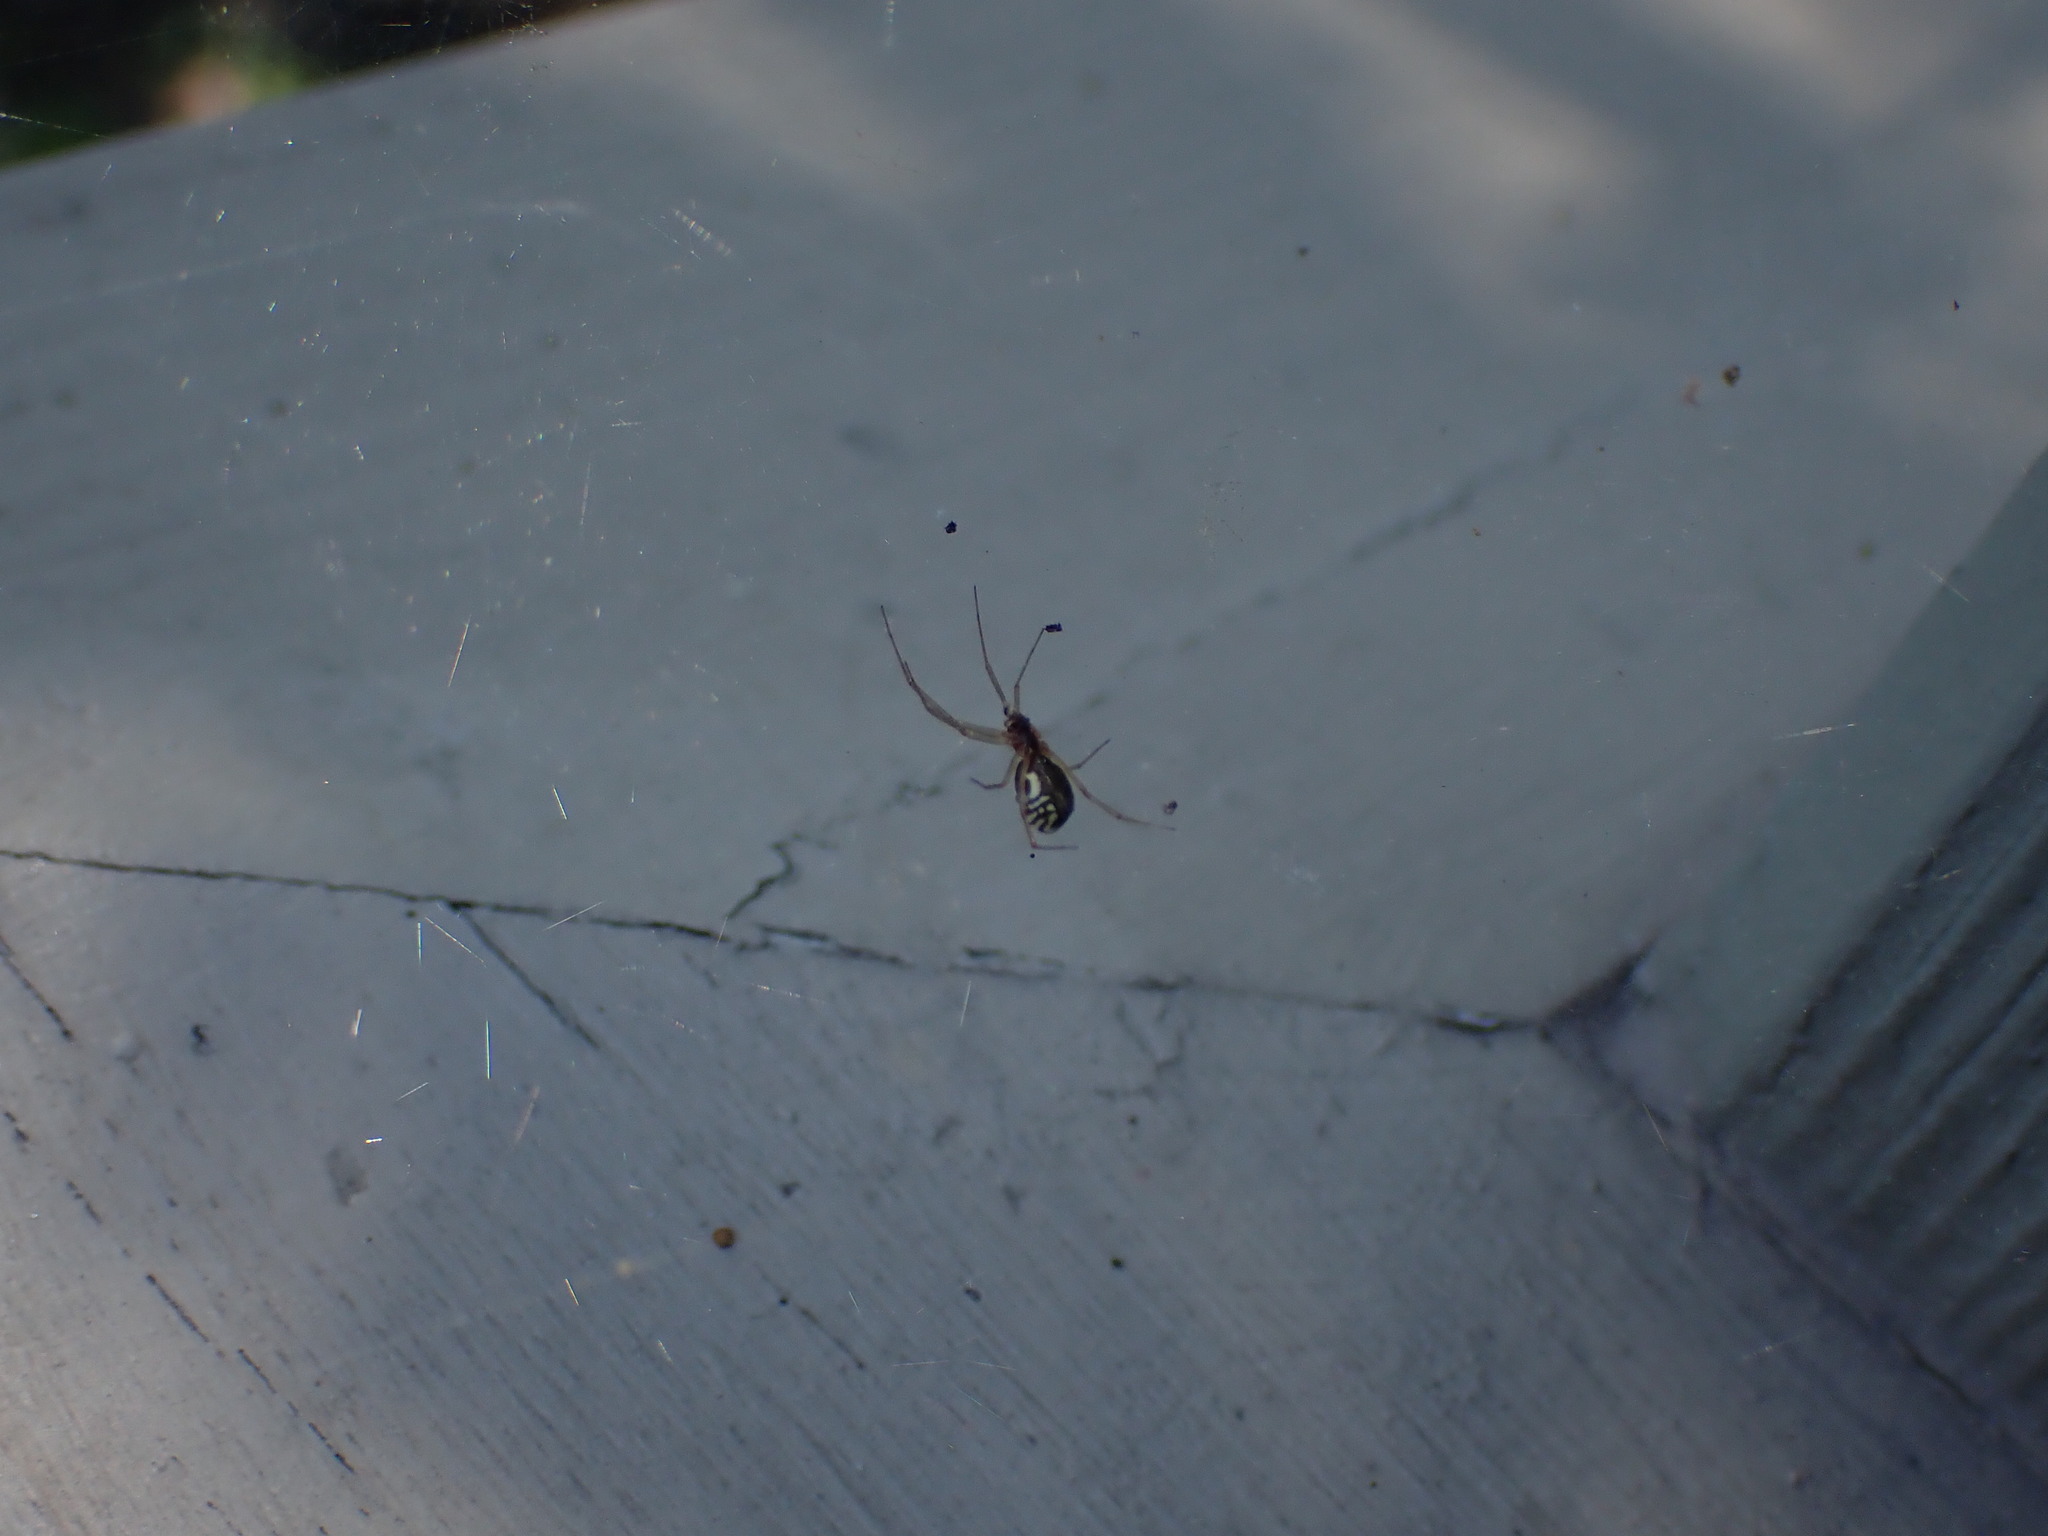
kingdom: Animalia
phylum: Arthropoda
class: Arachnida
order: Araneae
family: Linyphiidae
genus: Neriene
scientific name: Neriene radiata
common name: Filmy dome spider
